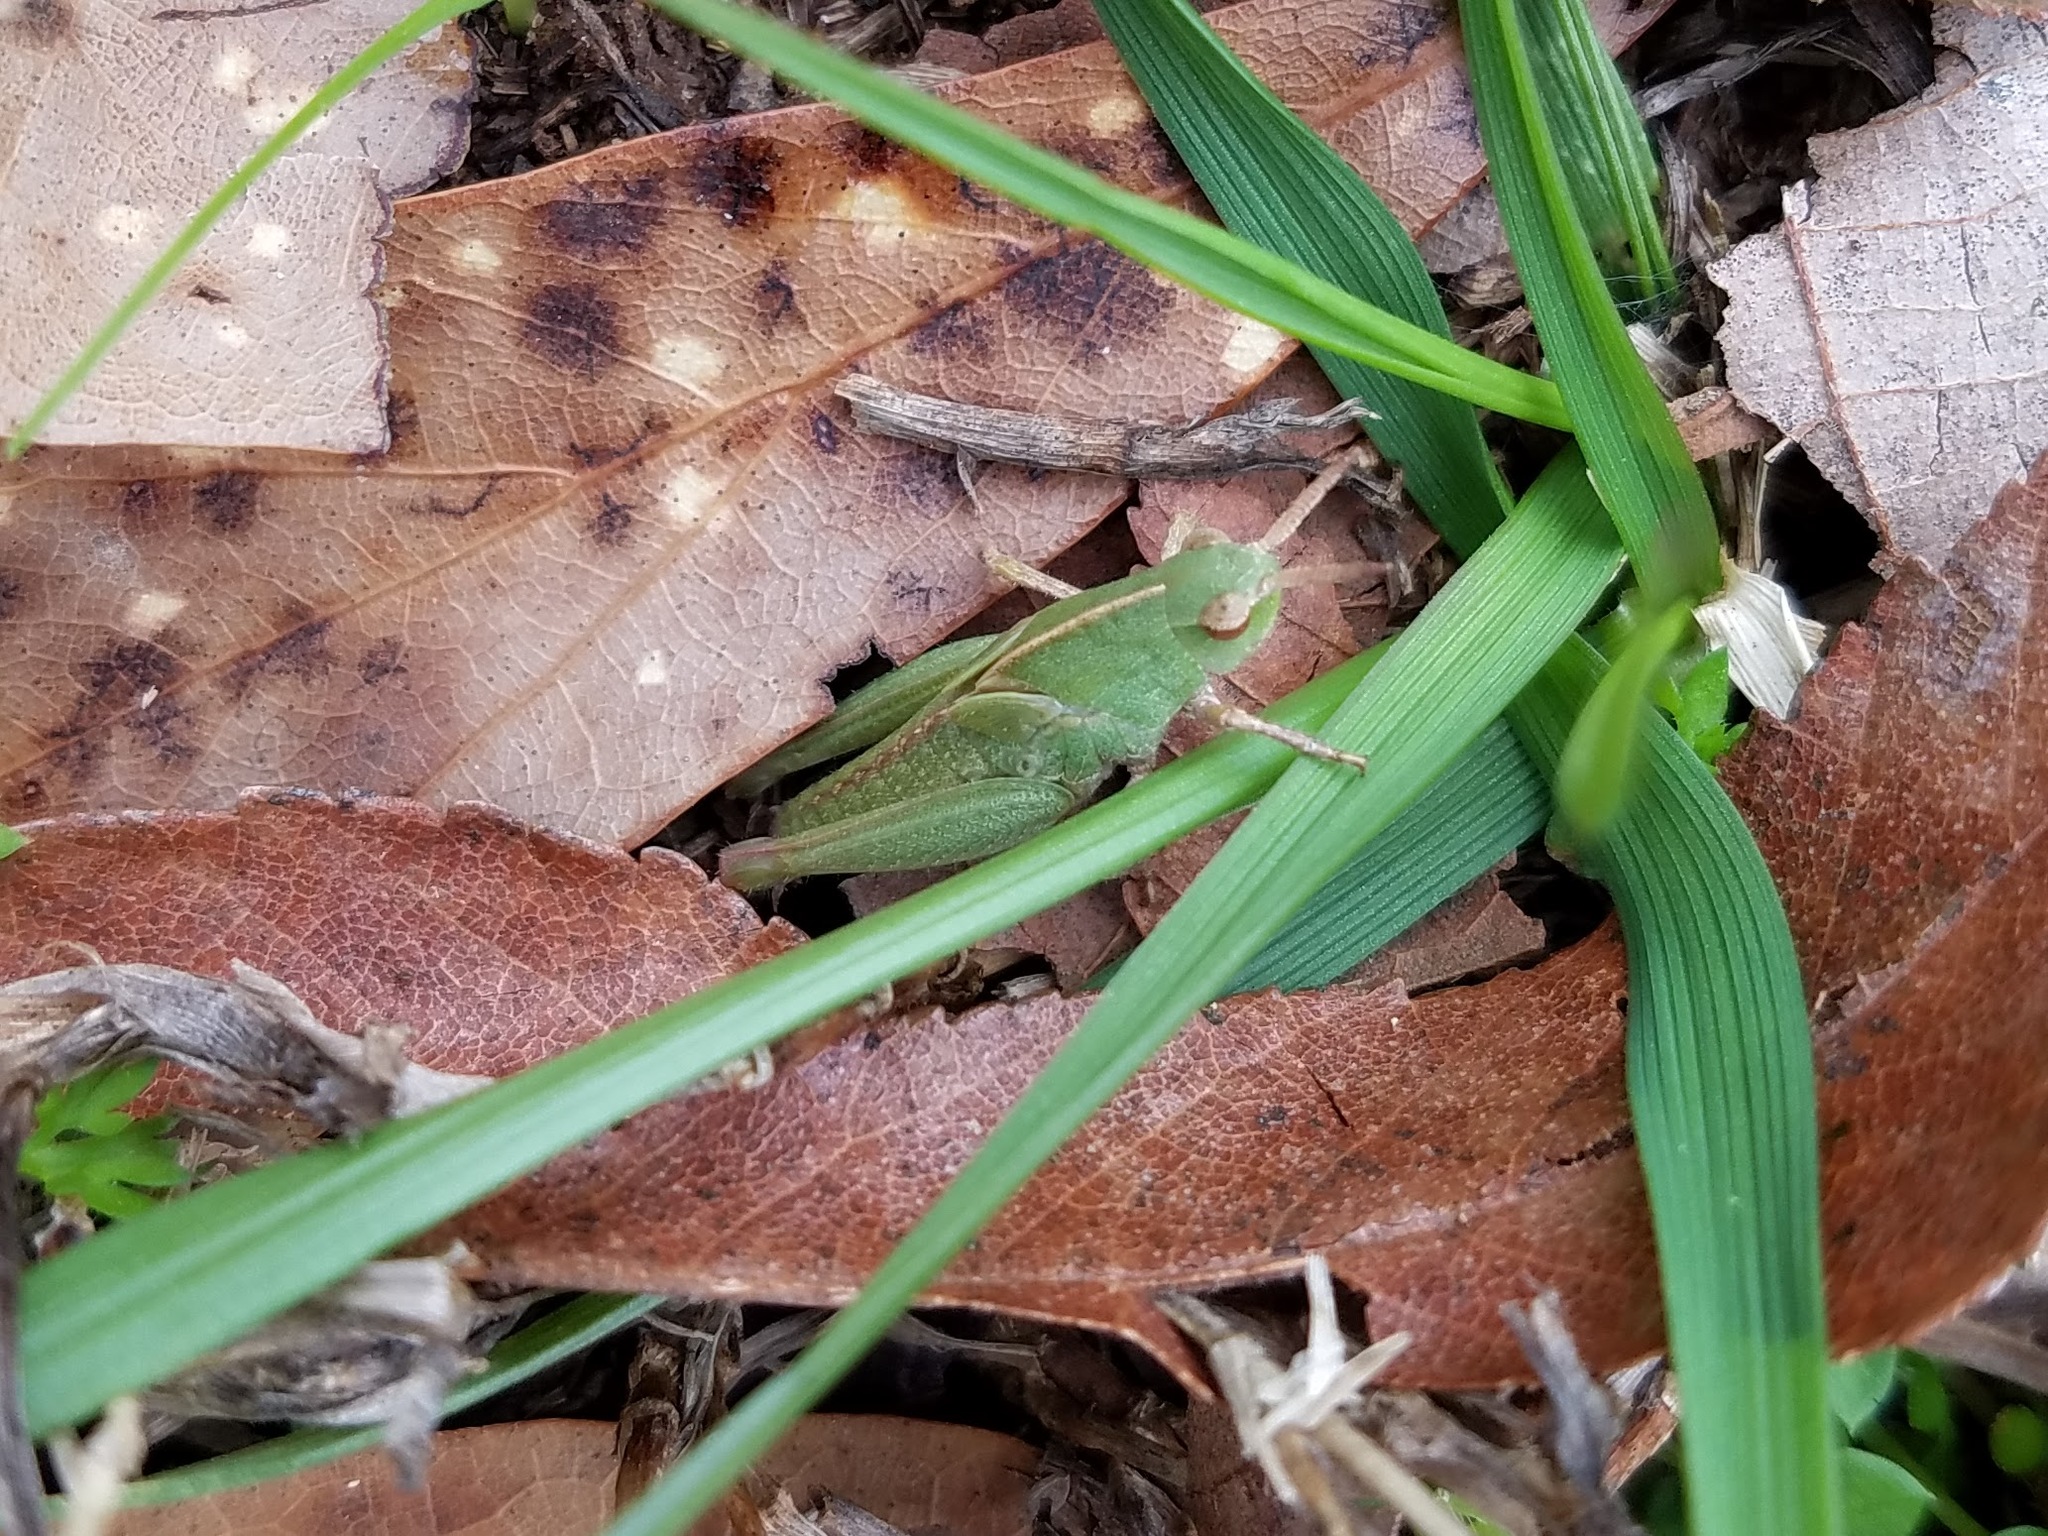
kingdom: Animalia
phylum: Arthropoda
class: Insecta
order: Orthoptera
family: Acrididae
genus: Chortophaga
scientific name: Chortophaga viridifasciata
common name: Green-striped grasshopper
